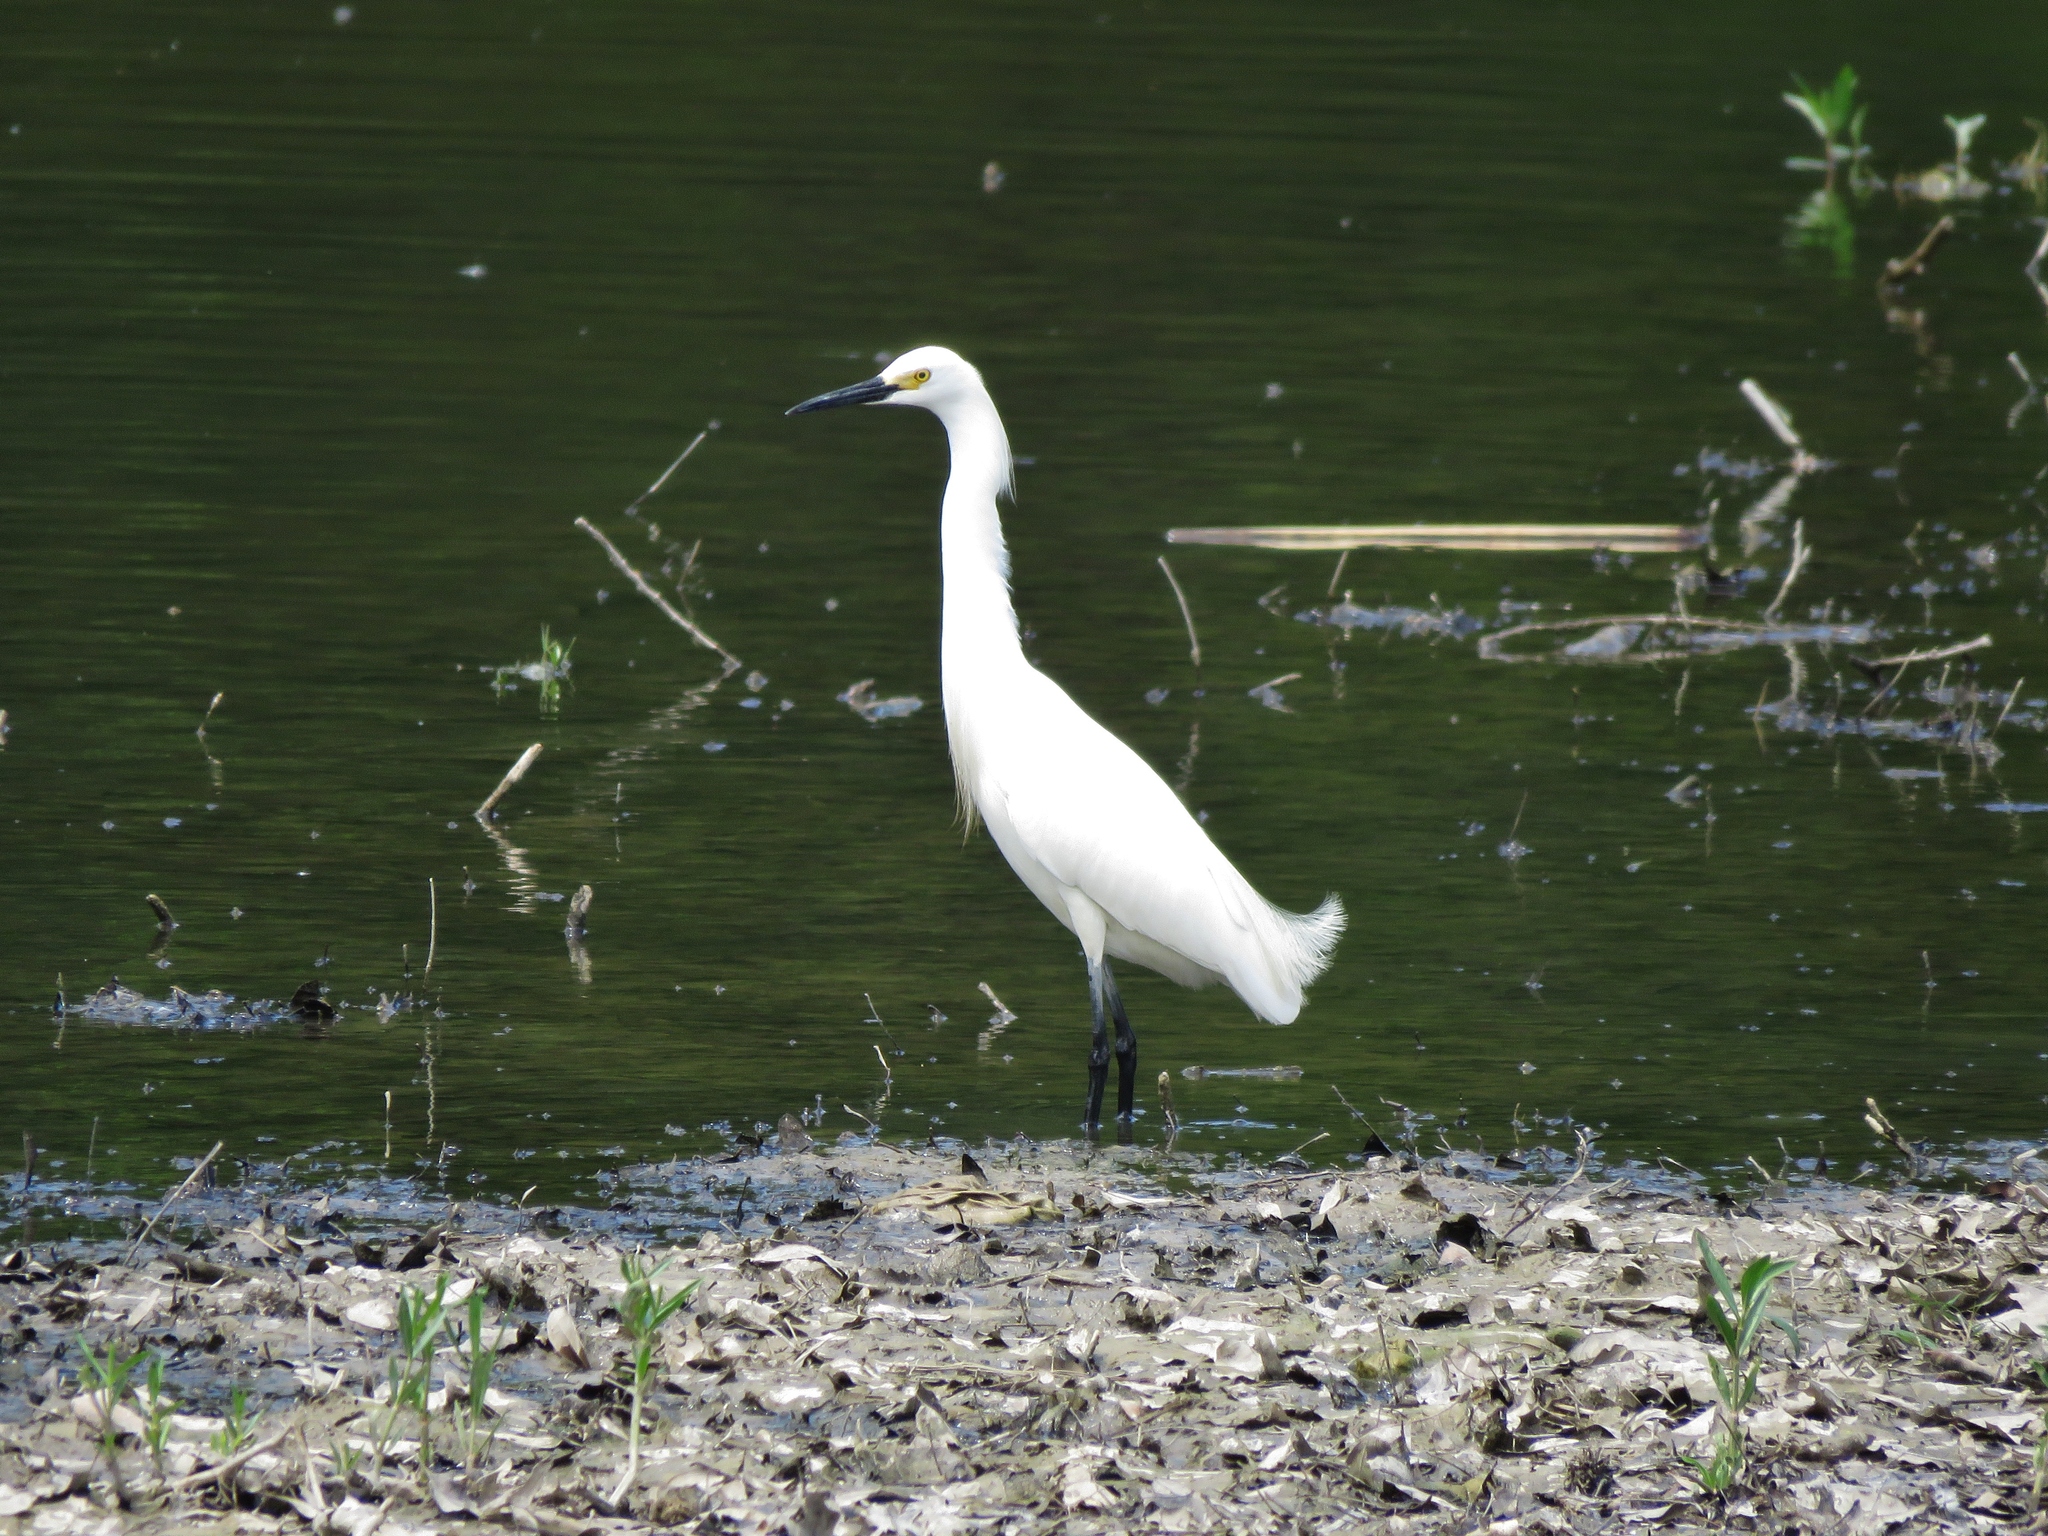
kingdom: Animalia
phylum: Chordata
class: Aves
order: Pelecaniformes
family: Ardeidae
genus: Egretta
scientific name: Egretta thula
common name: Snowy egret
